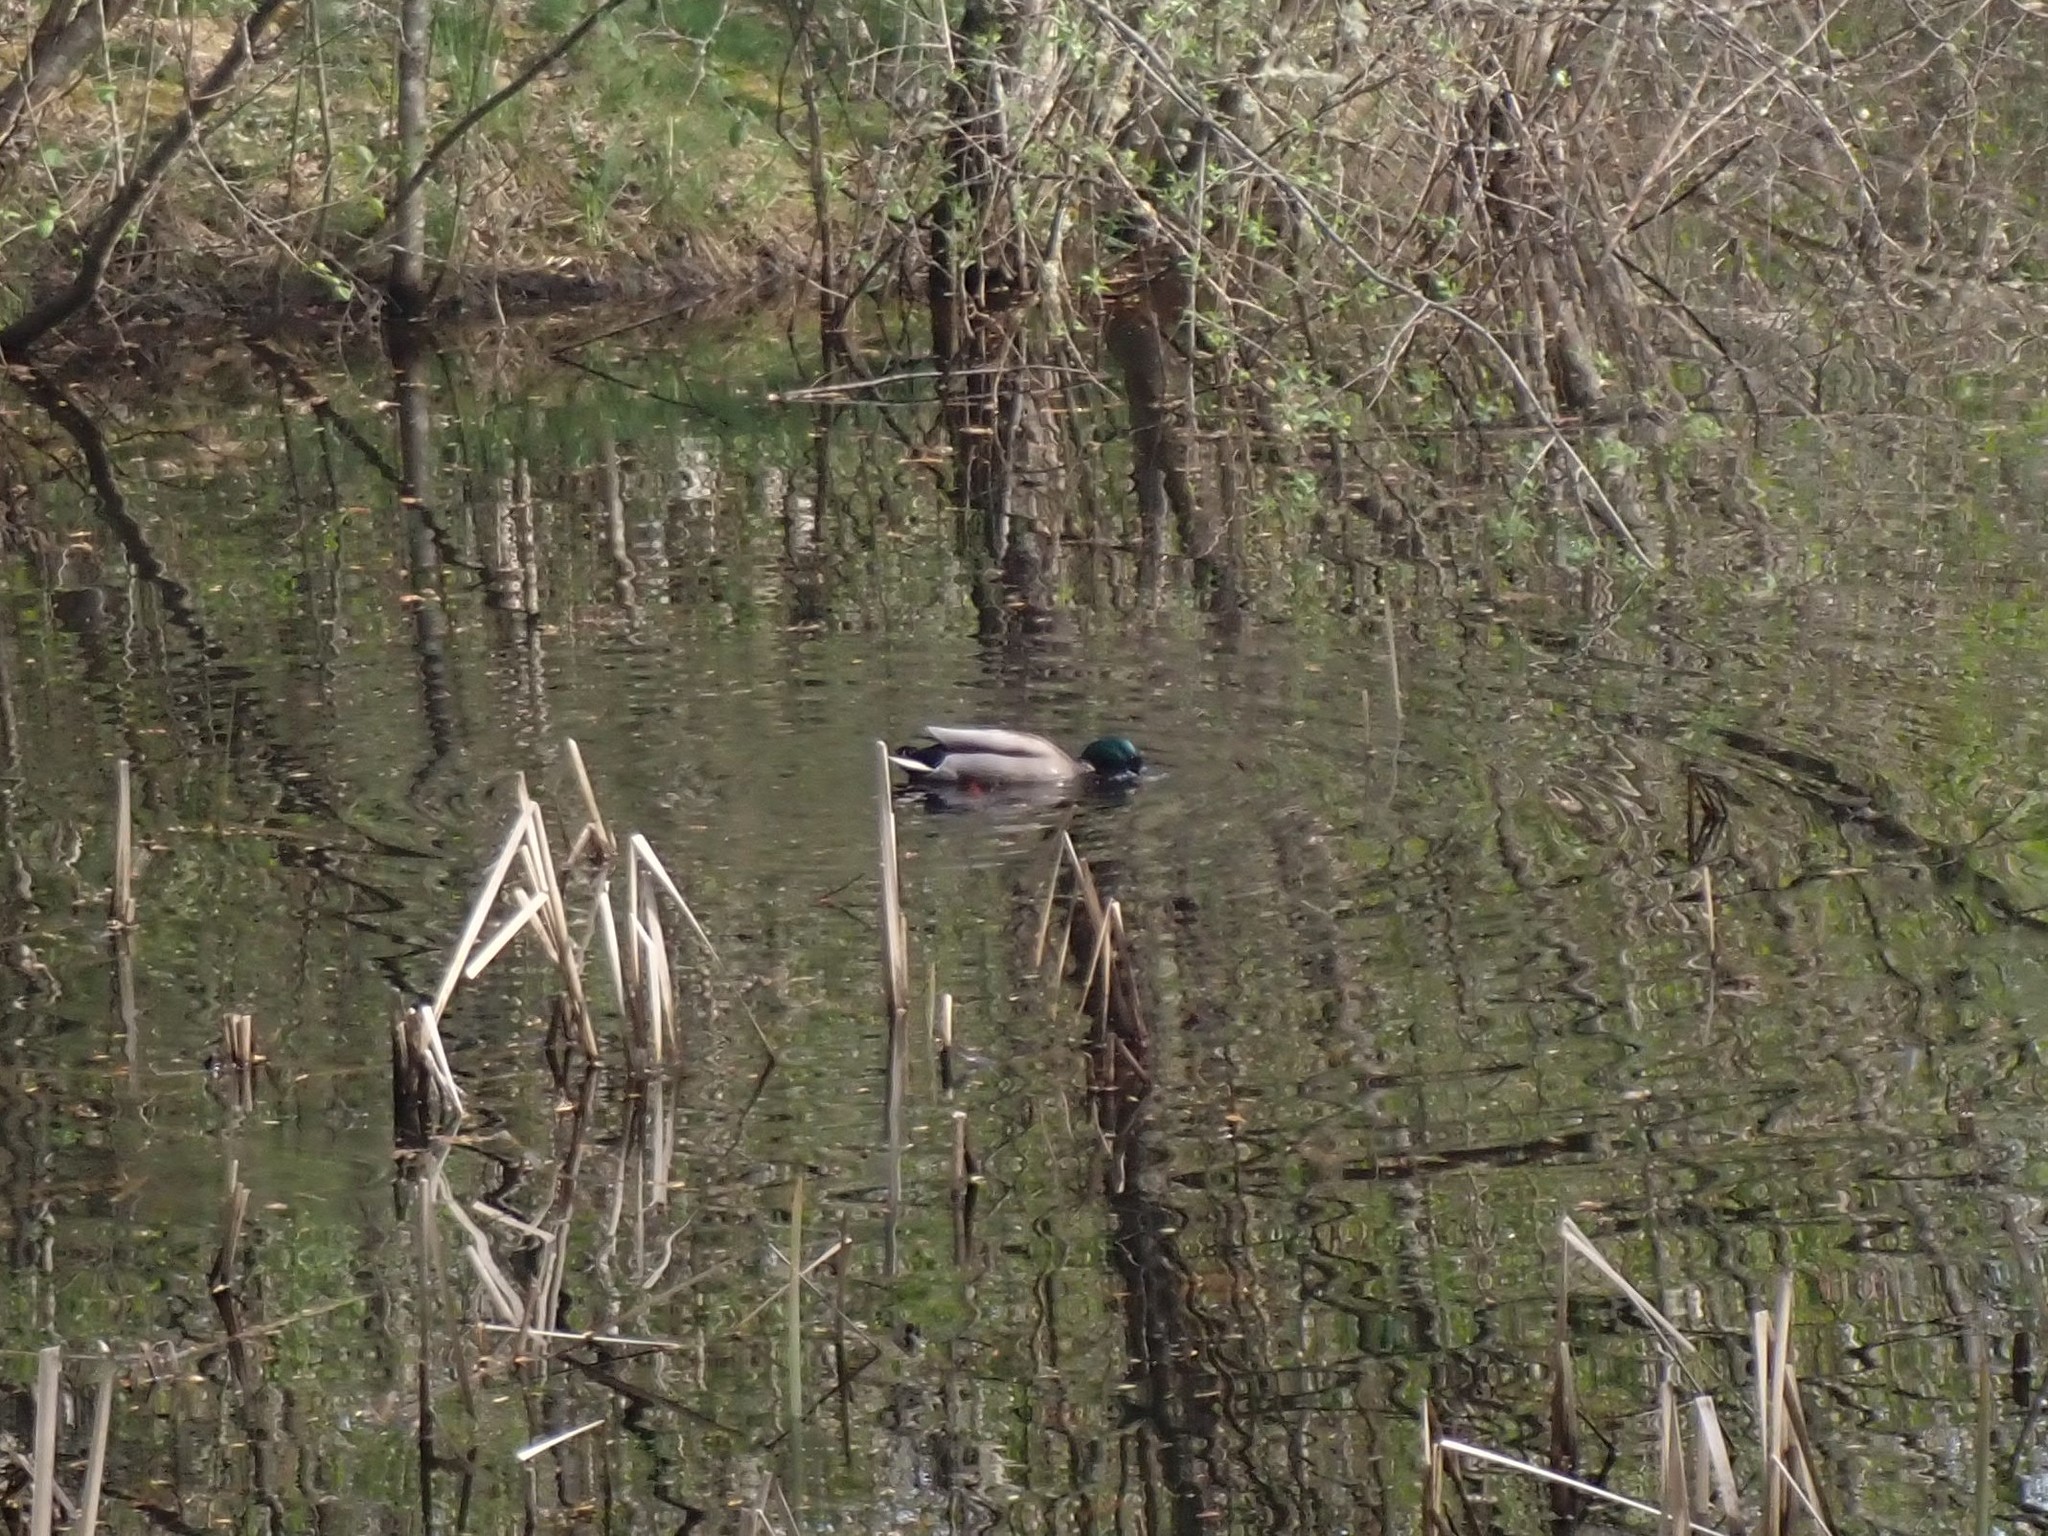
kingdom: Animalia
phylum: Chordata
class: Aves
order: Anseriformes
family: Anatidae
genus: Anas
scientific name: Anas platyrhynchos
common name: Mallard
